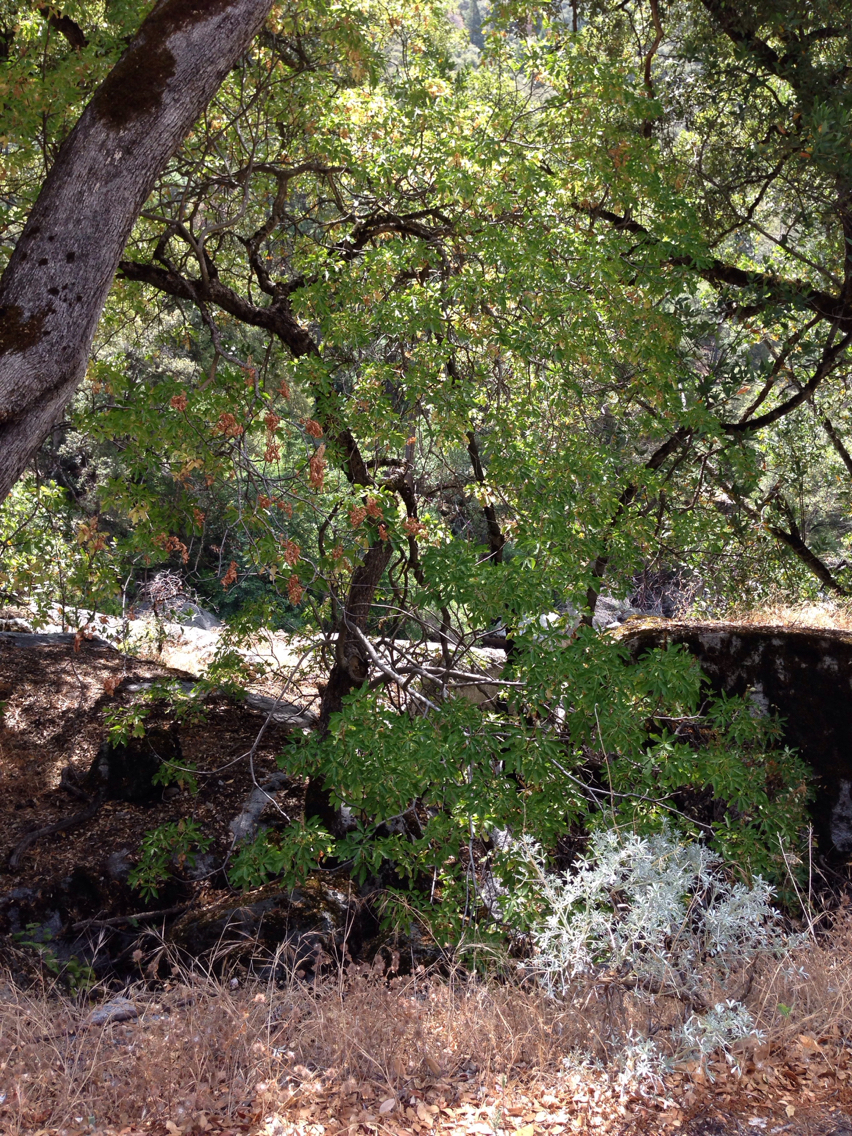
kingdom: Plantae
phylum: Tracheophyta
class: Magnoliopsida
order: Sapindales
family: Sapindaceae
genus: Aesculus
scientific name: Aesculus californica
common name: California buckeye
